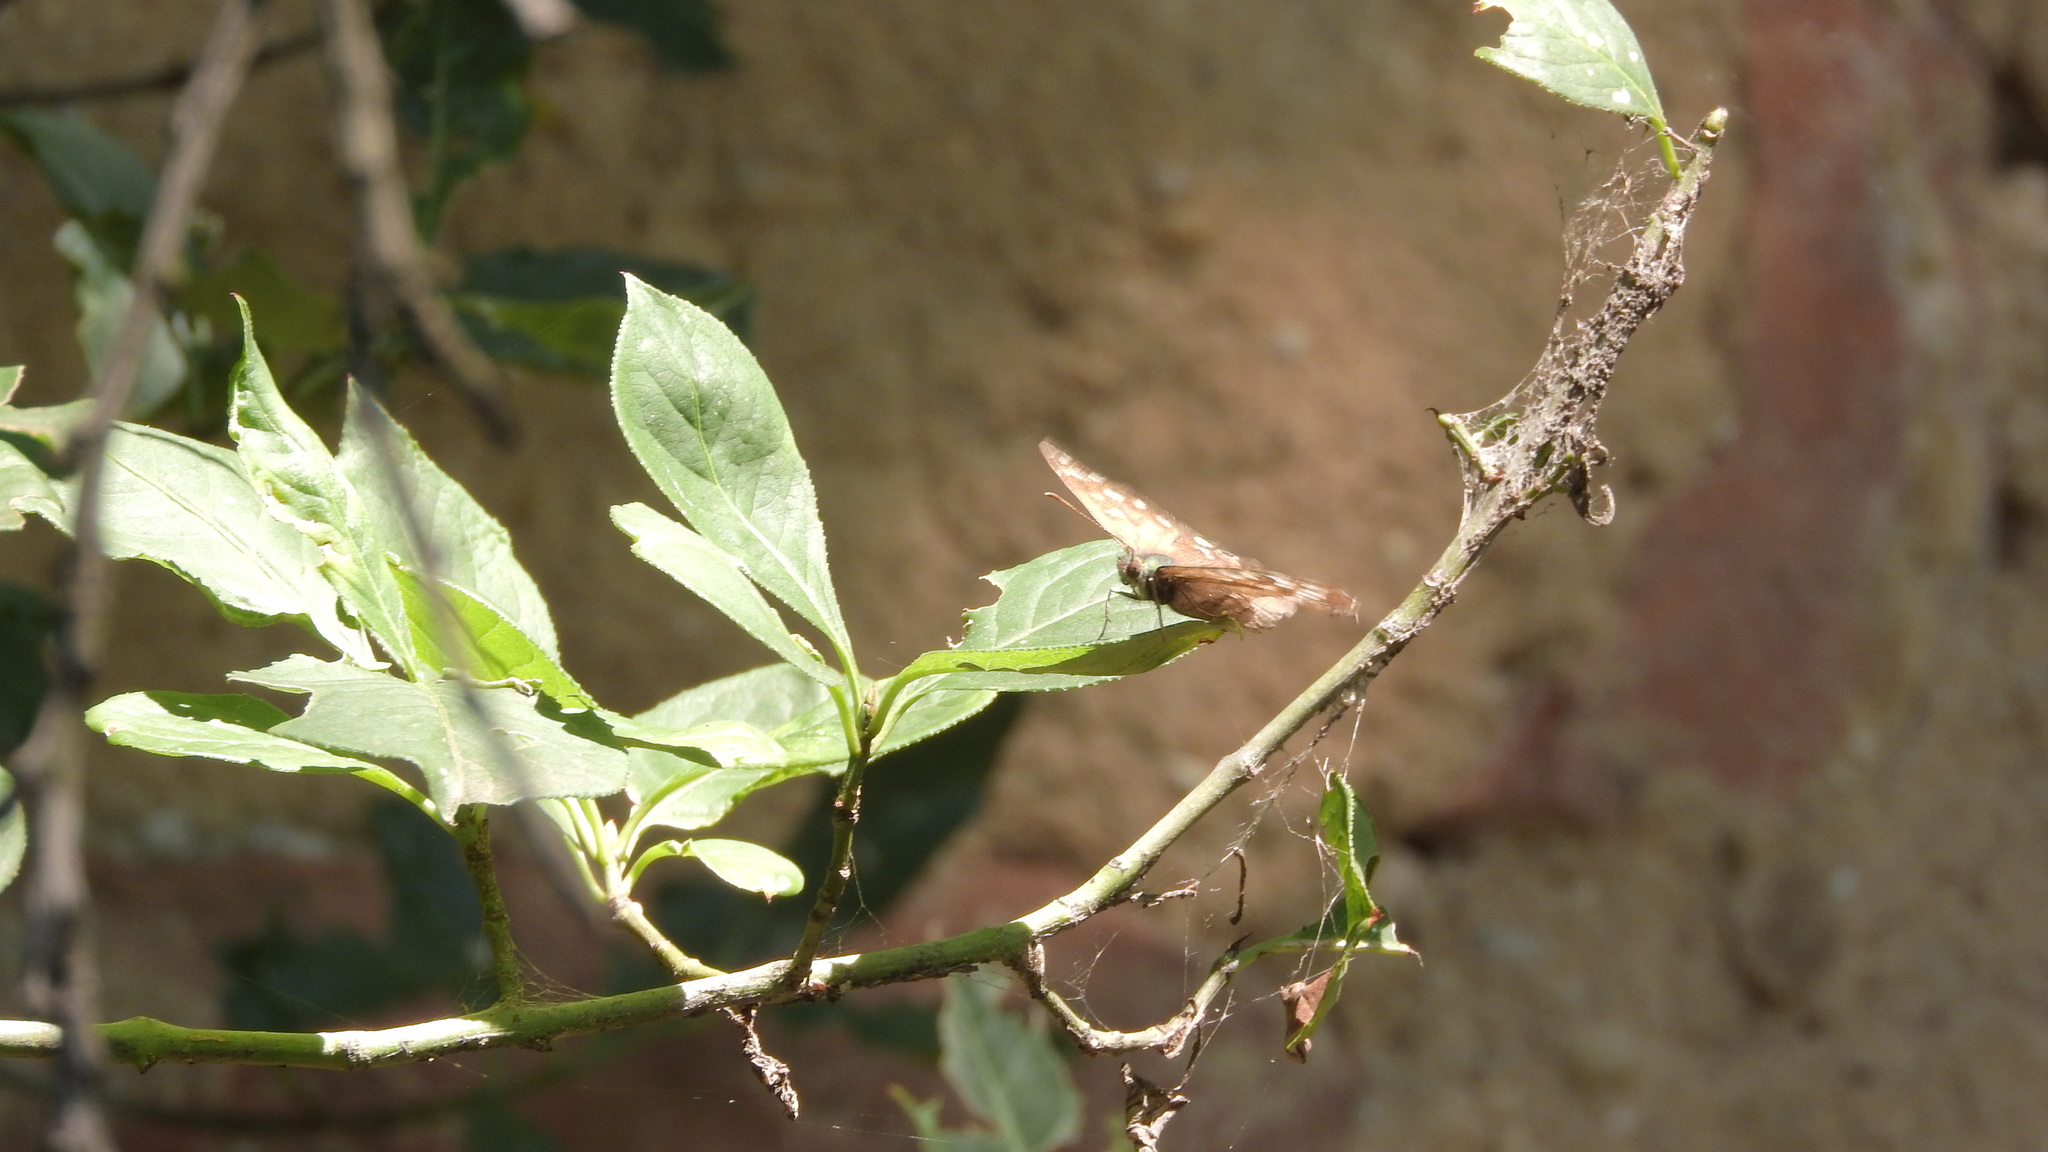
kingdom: Animalia
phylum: Arthropoda
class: Insecta
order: Lepidoptera
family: Nymphalidae
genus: Pararge
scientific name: Pararge aegeria
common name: Speckled wood
